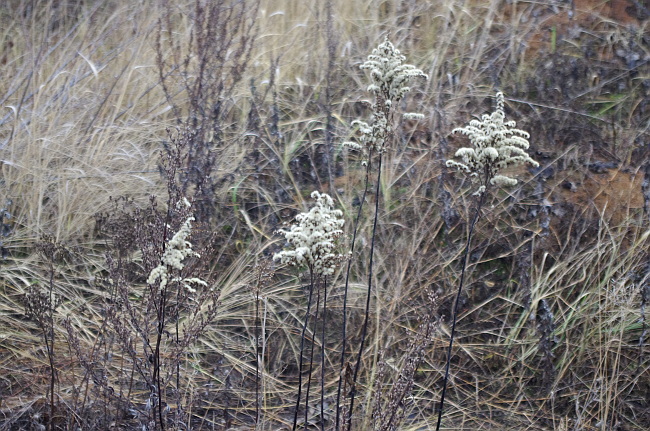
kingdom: Plantae
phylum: Tracheophyta
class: Magnoliopsida
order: Asterales
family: Asteraceae
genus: Solidago
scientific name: Solidago gigantea
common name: Giant goldenrod
